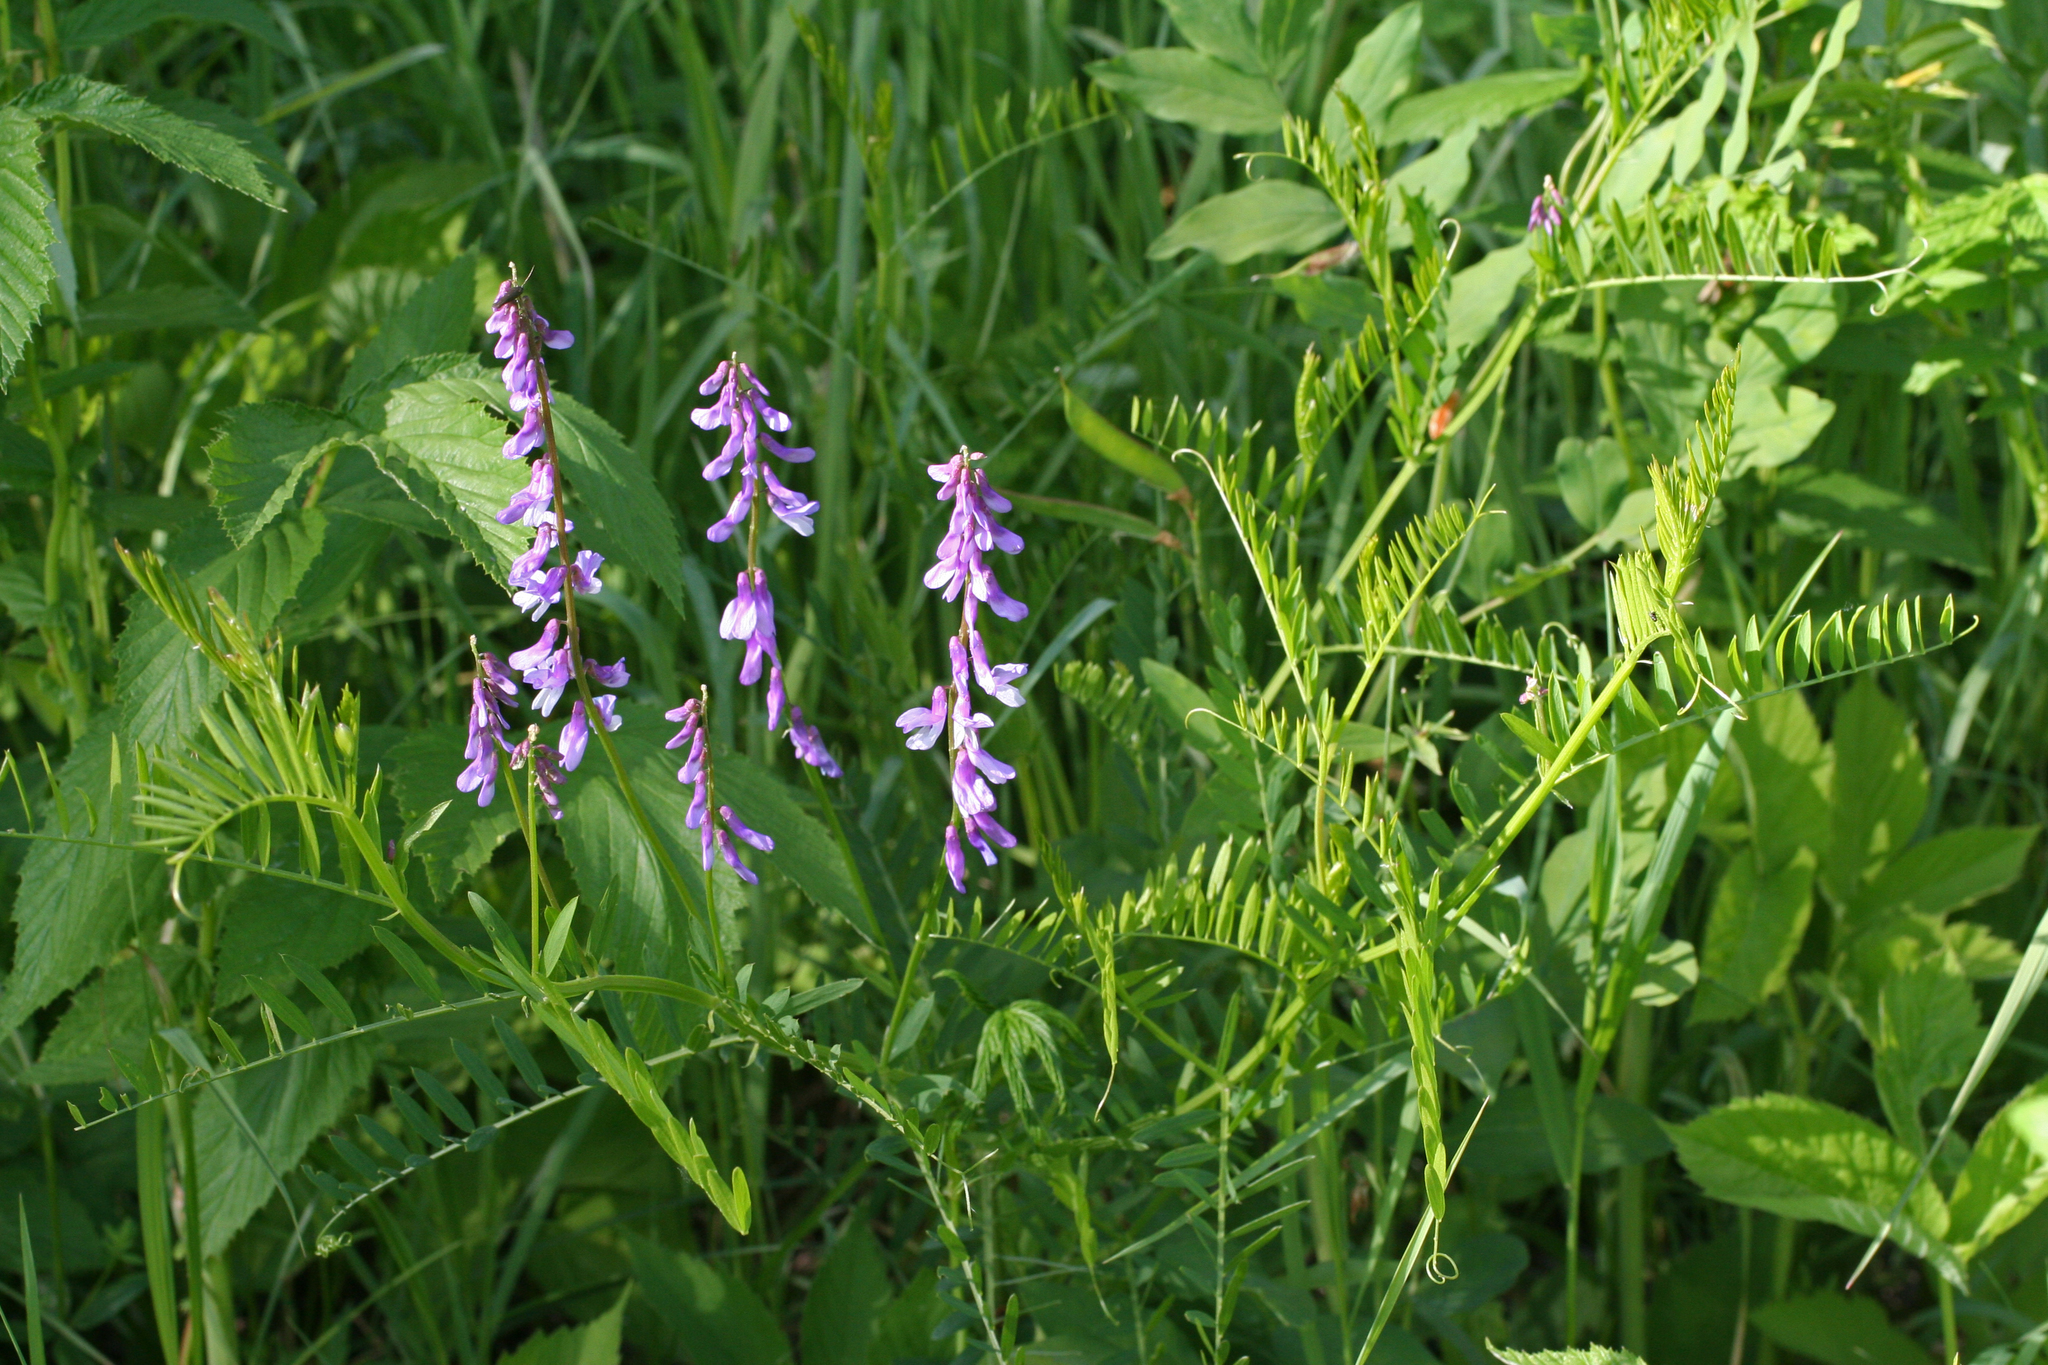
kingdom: Plantae
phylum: Tracheophyta
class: Magnoliopsida
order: Fabales
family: Fabaceae
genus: Vicia
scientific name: Vicia tenuifolia
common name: Fine-leaved vetch
